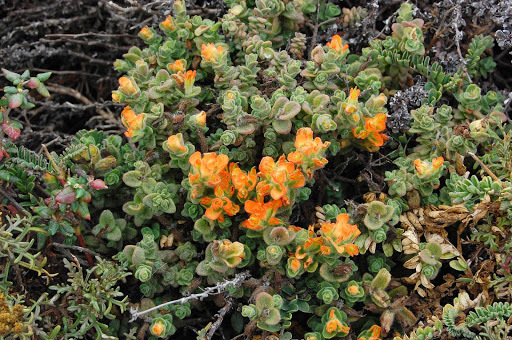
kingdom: Plantae
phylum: Tracheophyta
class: Magnoliopsida
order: Lamiales
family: Orobanchaceae
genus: Castilleja
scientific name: Castilleja latifolia
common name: Monterey indian paintbrush
